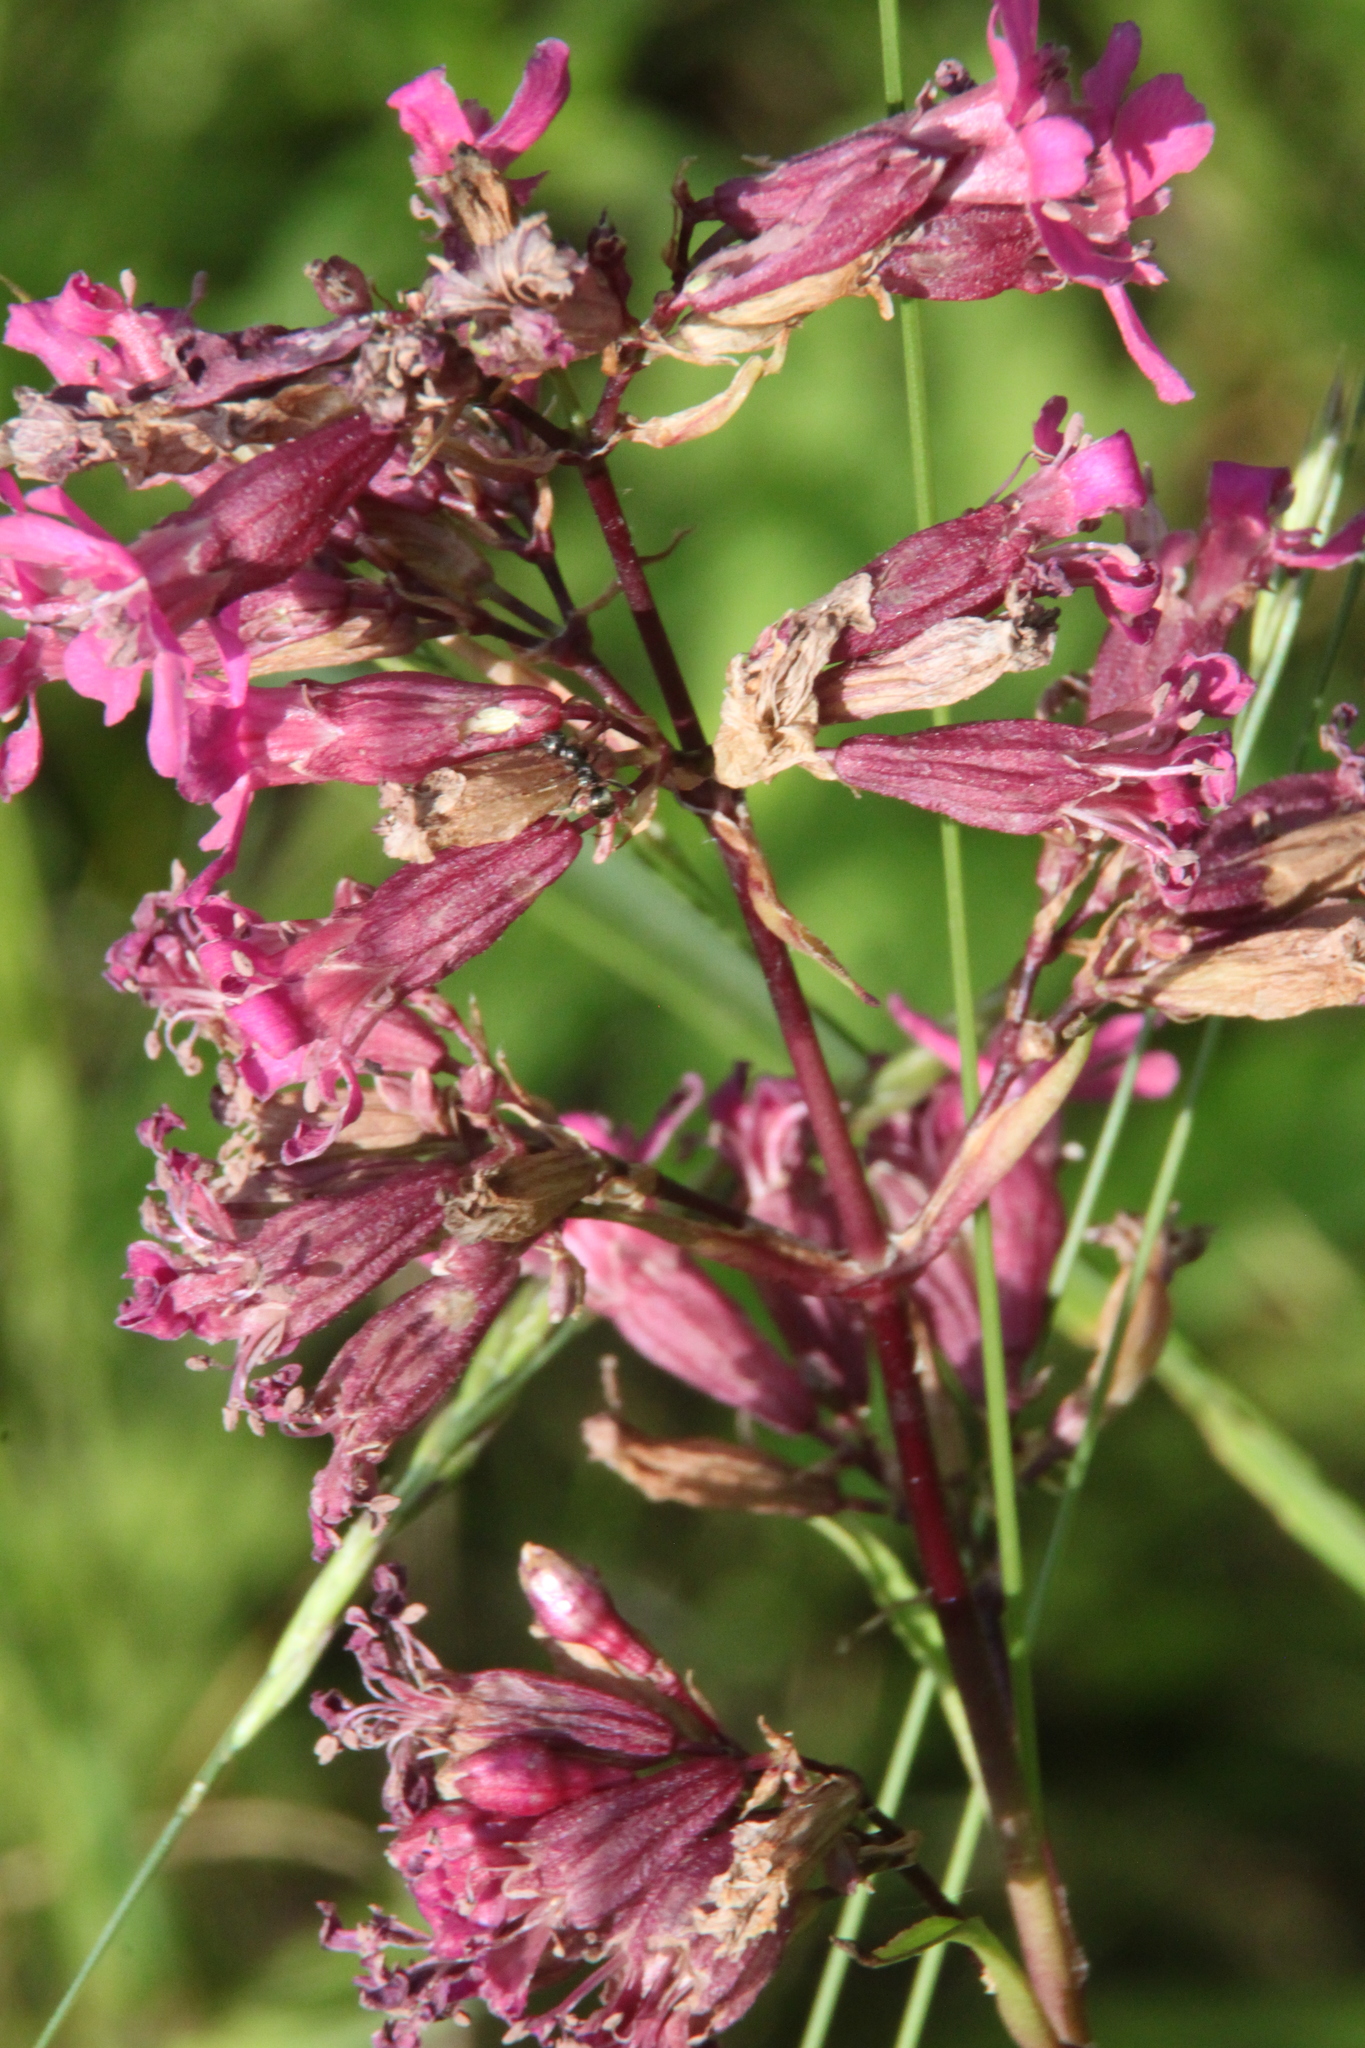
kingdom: Plantae
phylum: Tracheophyta
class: Magnoliopsida
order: Caryophyllales
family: Caryophyllaceae
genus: Viscaria
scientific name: Viscaria vulgaris
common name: Clammy campion
